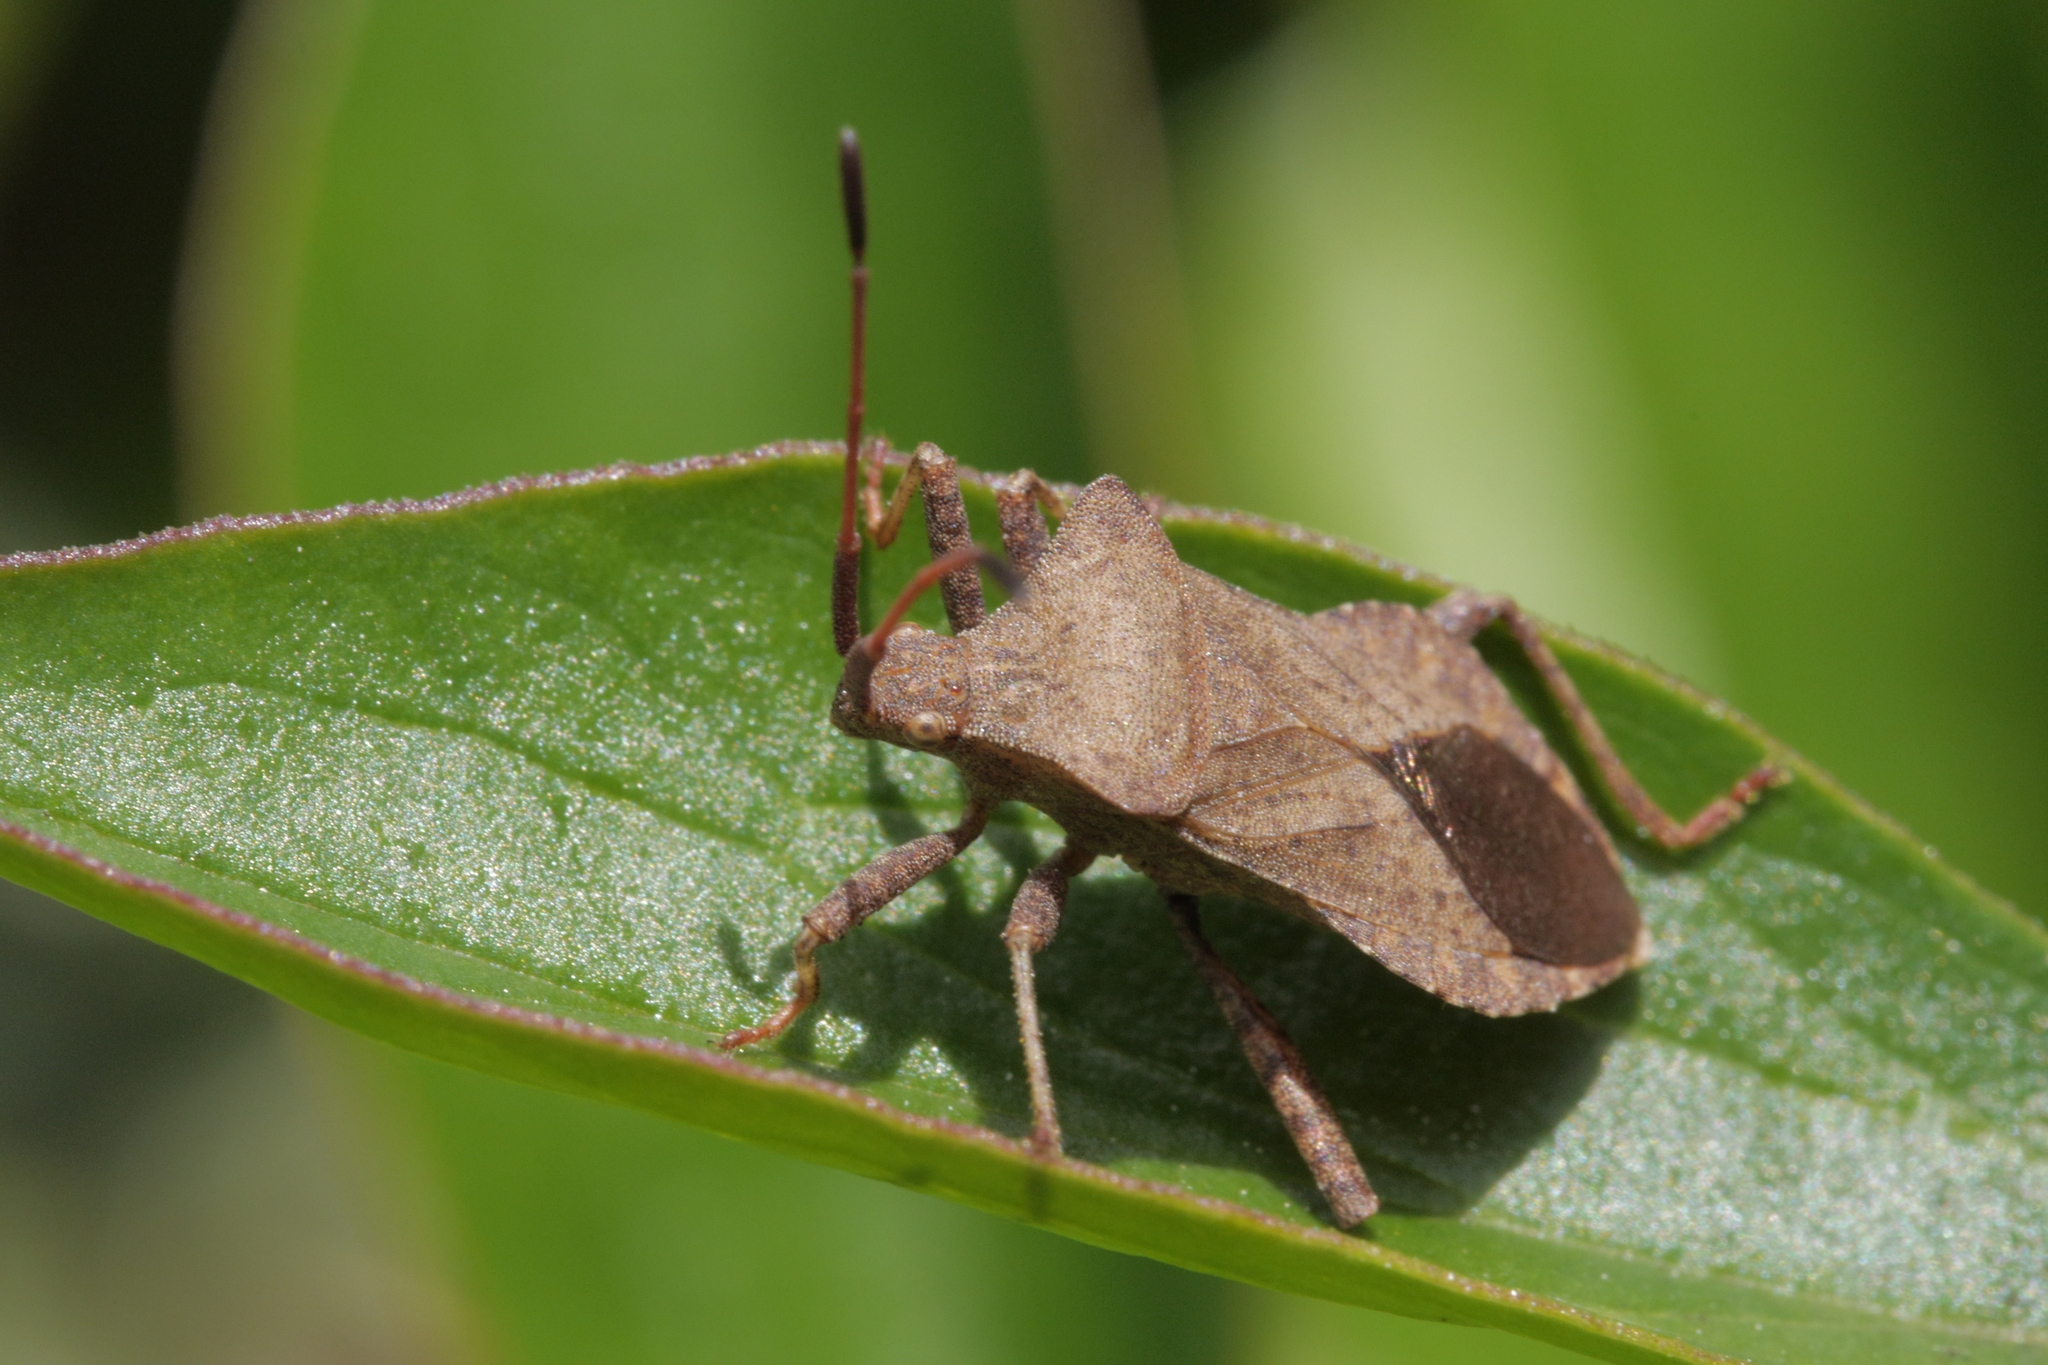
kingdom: Animalia
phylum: Arthropoda
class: Insecta
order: Hemiptera
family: Coreidae
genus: Coreus
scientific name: Coreus marginatus
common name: Dock bug
